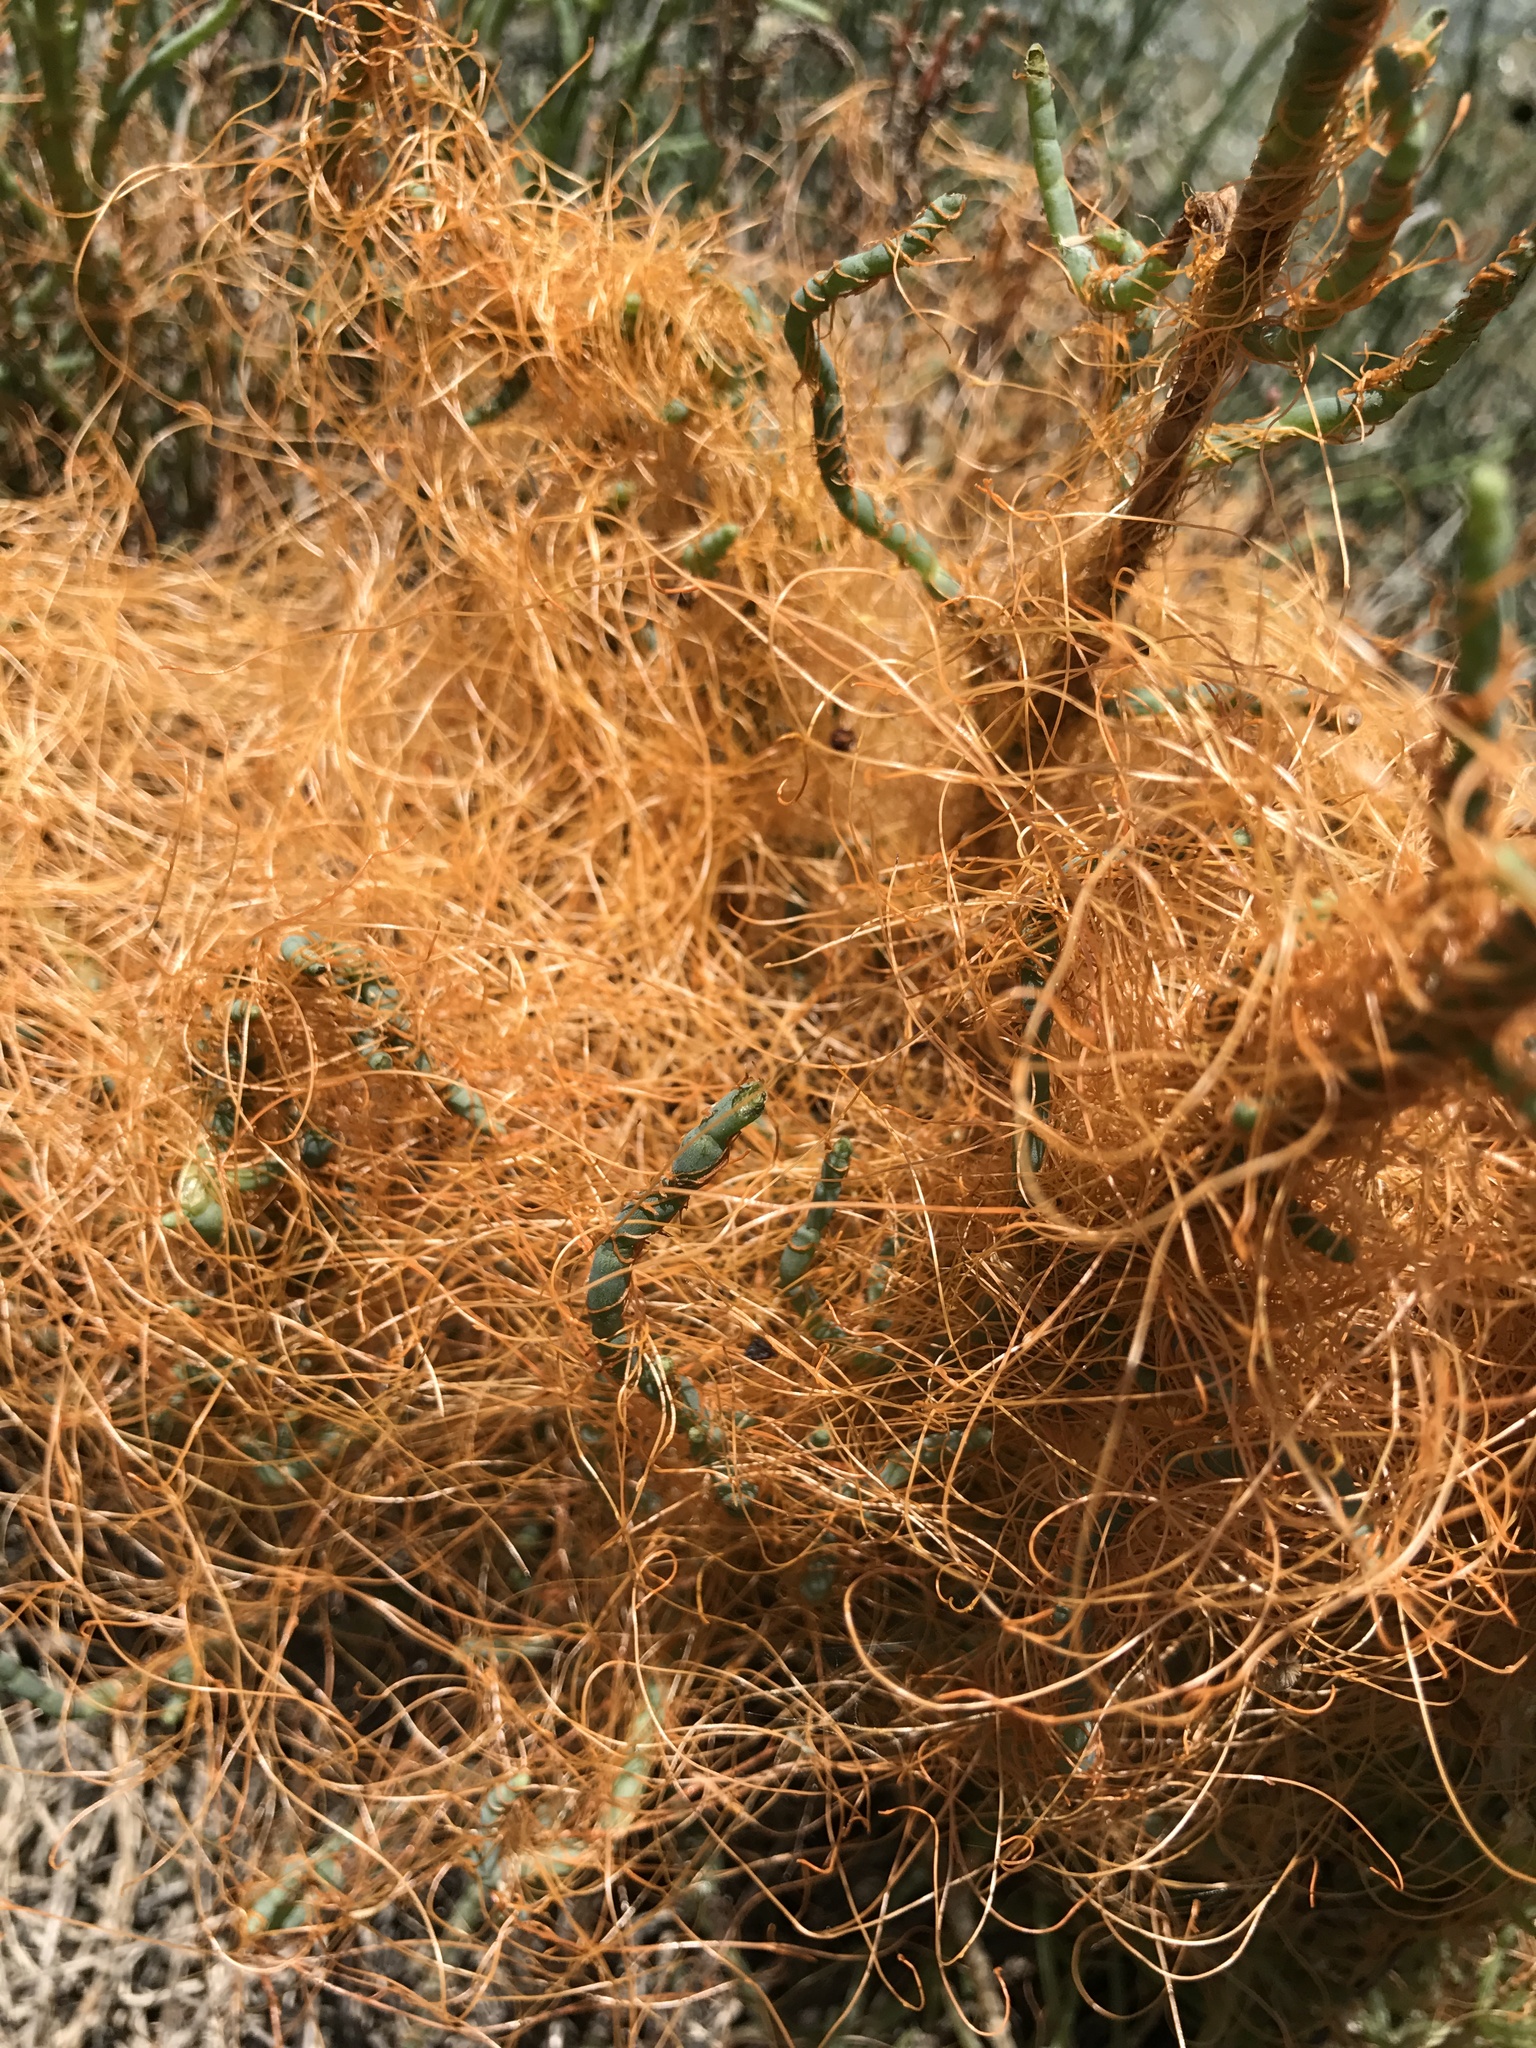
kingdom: Plantae
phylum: Tracheophyta
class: Magnoliopsida
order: Solanales
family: Convolvulaceae
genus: Cuscuta
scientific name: Cuscuta pacifica
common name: Large saltmarsh dodder
